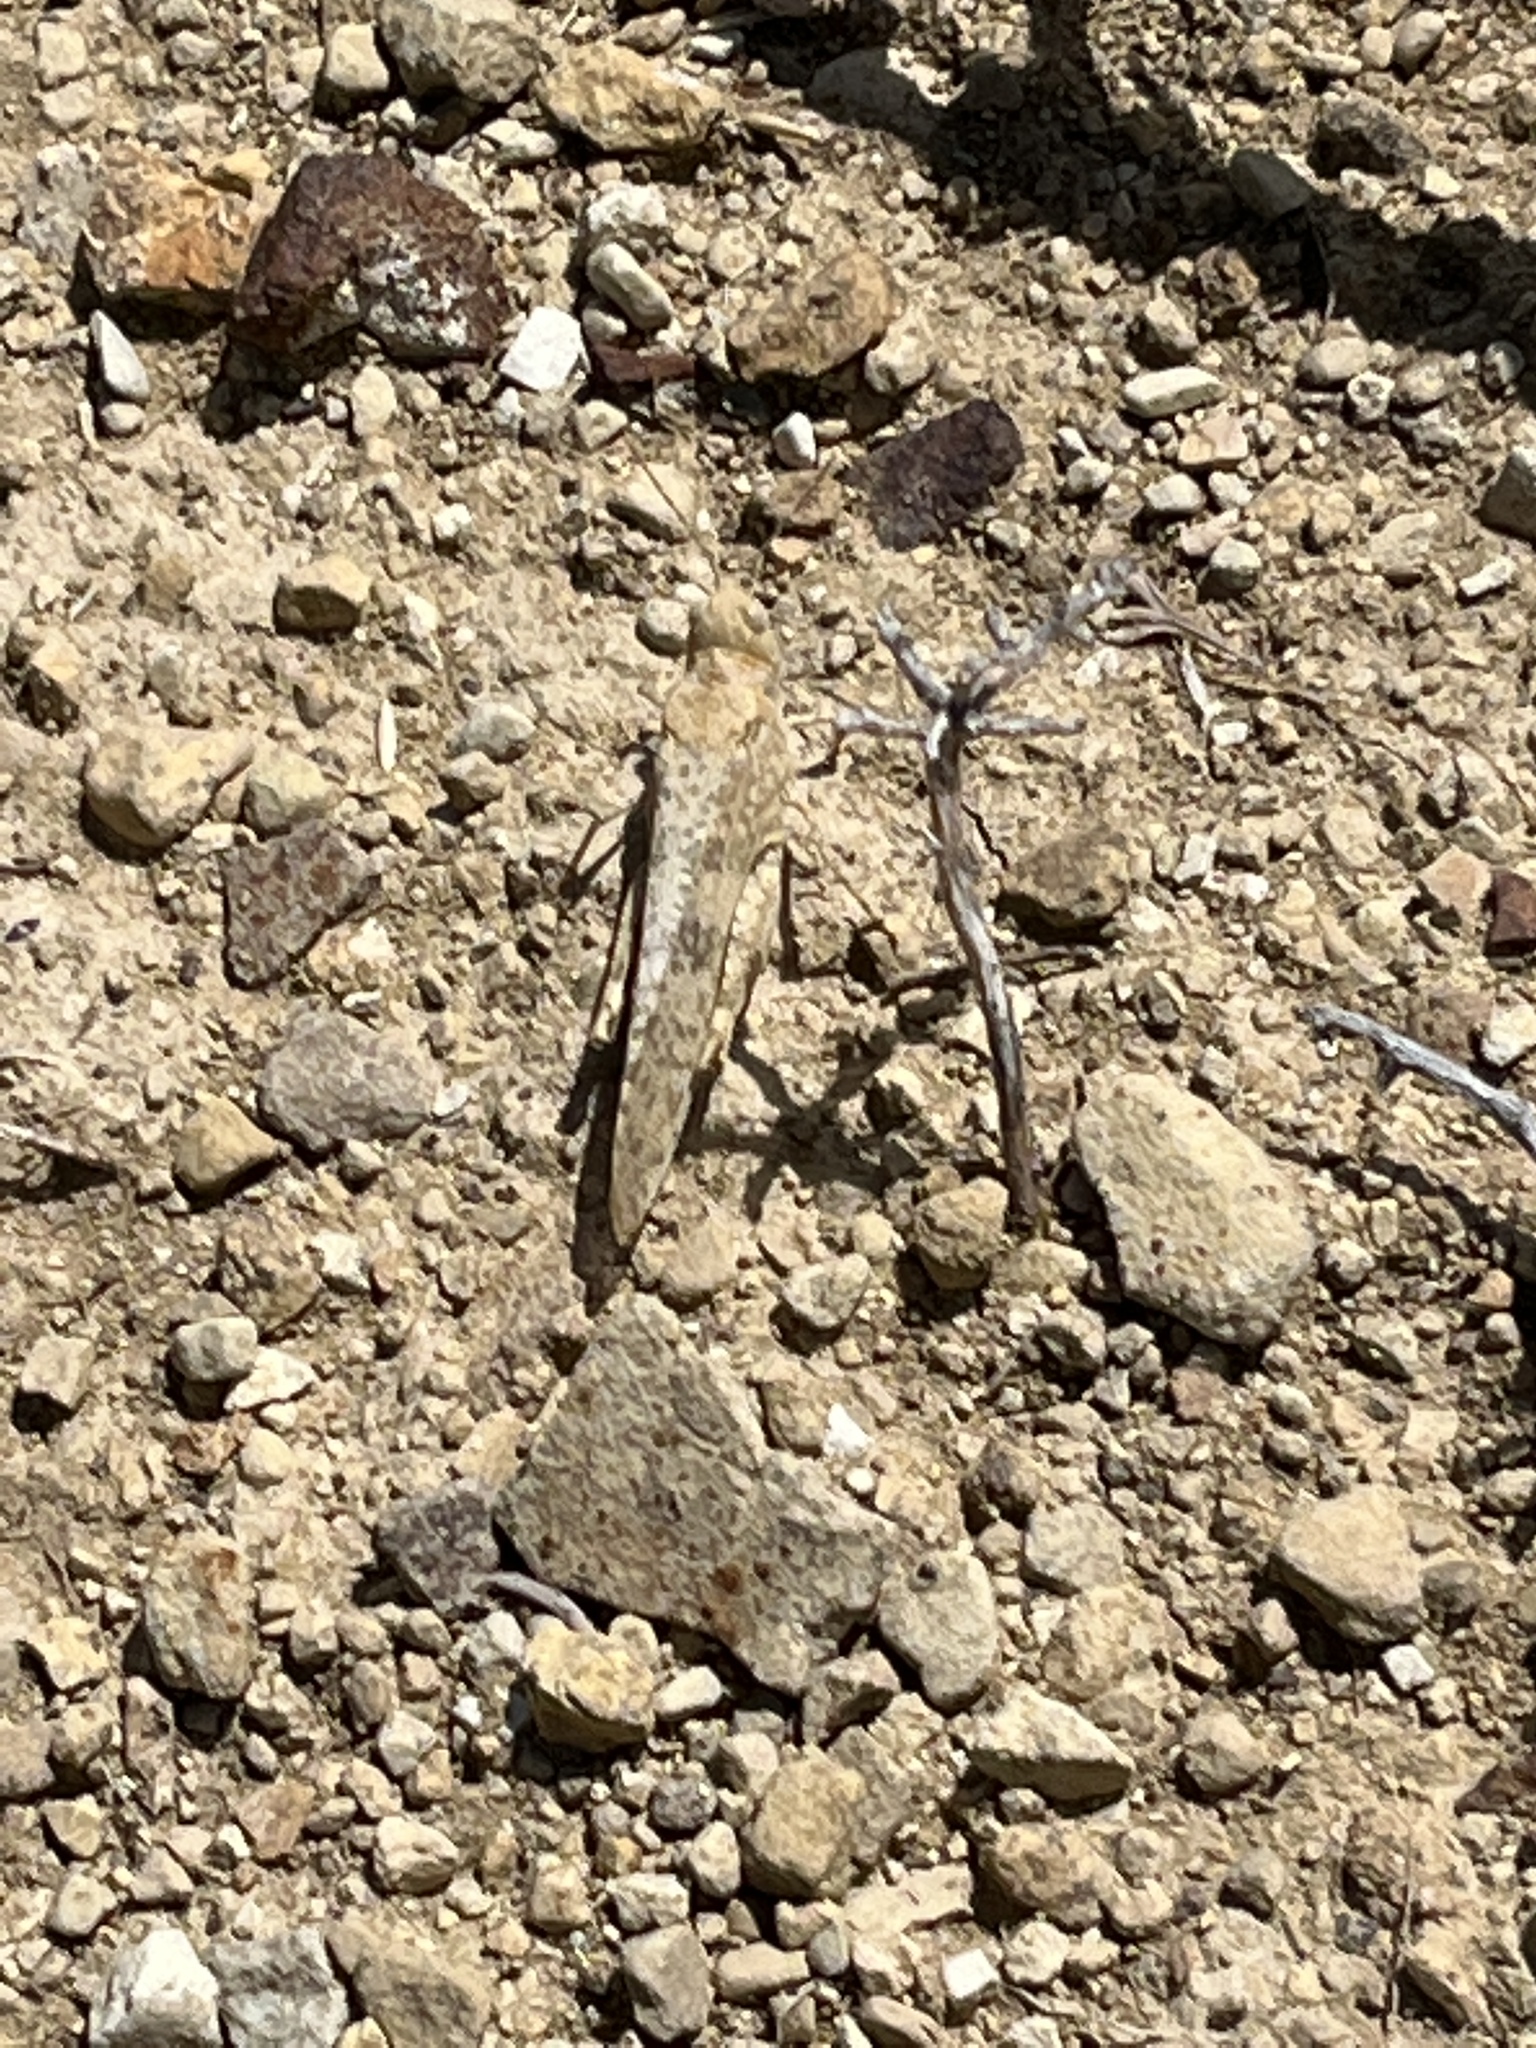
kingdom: Animalia
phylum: Arthropoda
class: Insecta
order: Orthoptera
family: Acrididae
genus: Dissosteira
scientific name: Dissosteira carolina
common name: Carolina grasshopper
